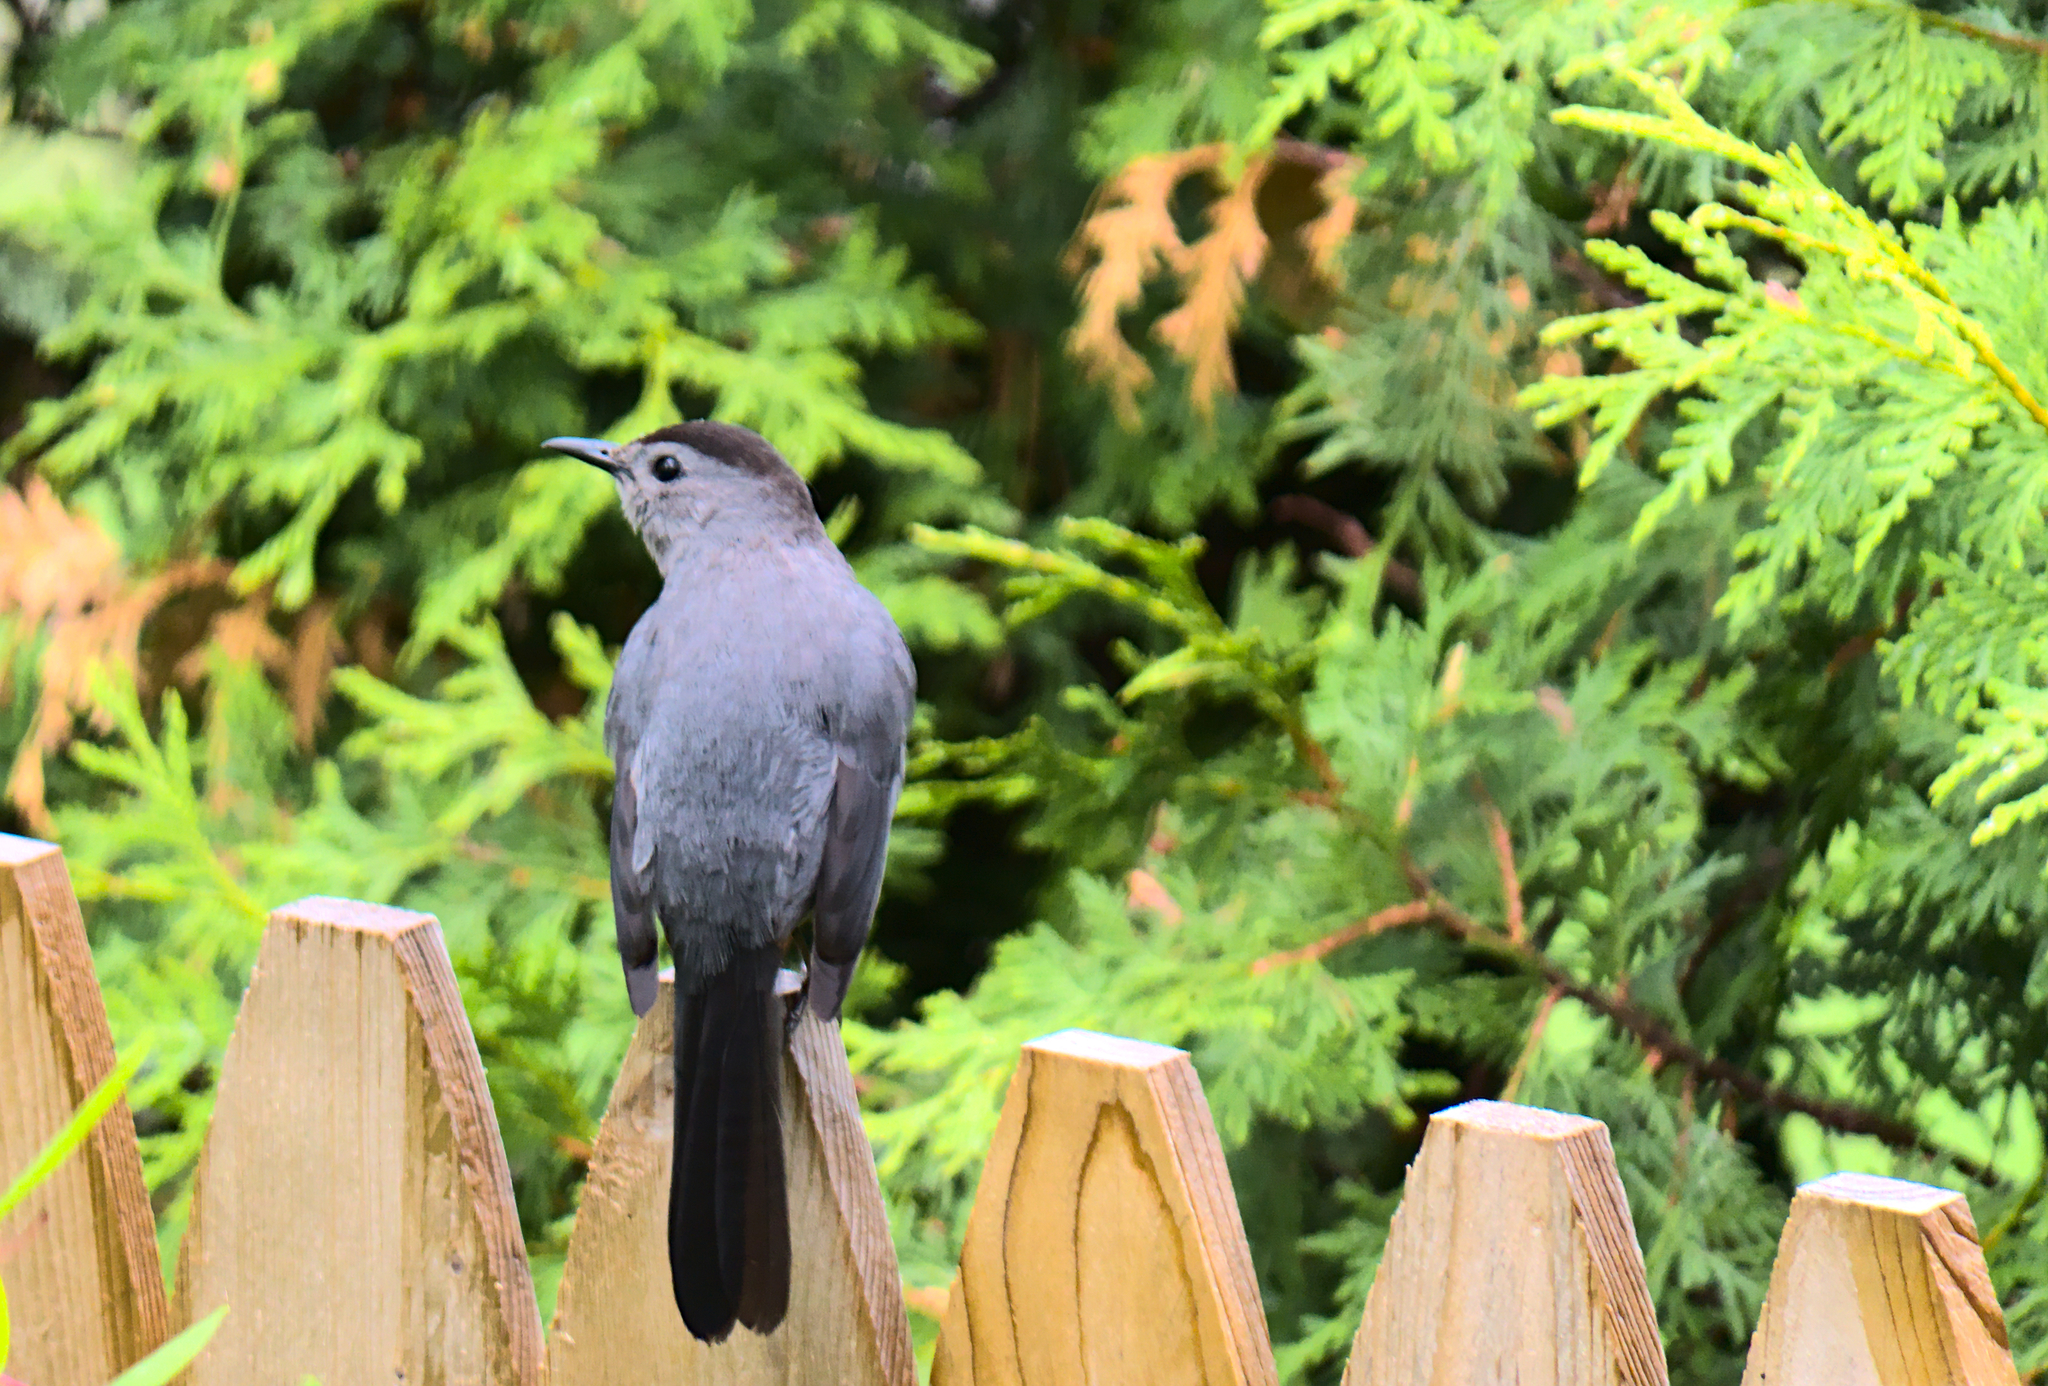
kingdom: Animalia
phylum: Chordata
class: Aves
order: Passeriformes
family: Mimidae
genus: Dumetella
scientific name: Dumetella carolinensis
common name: Gray catbird
